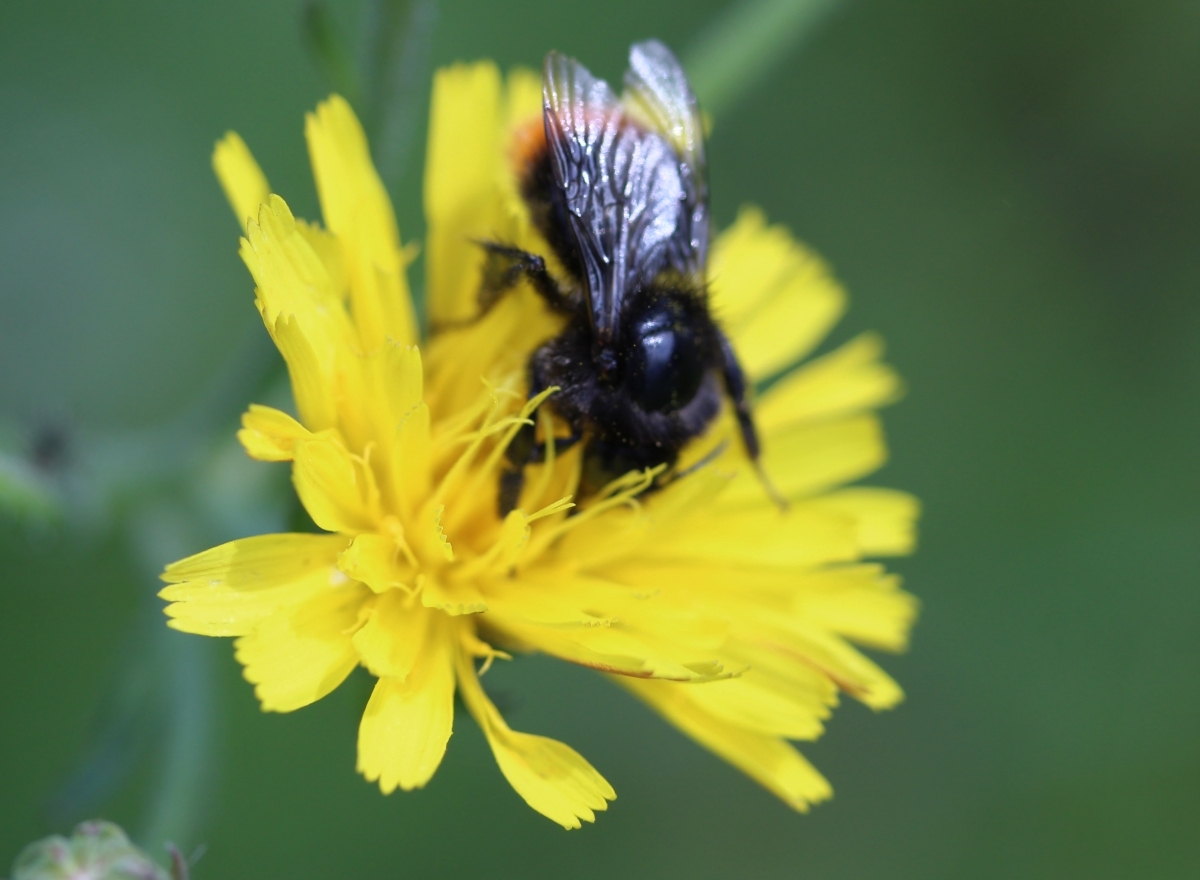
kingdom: Animalia
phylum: Arthropoda
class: Insecta
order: Hymenoptera
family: Apidae
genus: Bombus
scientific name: Bombus lapidarius
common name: Large red-tailed humble-bee
